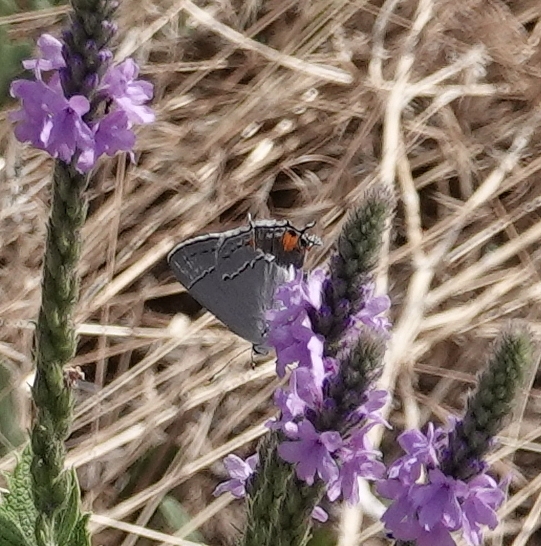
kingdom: Animalia
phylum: Arthropoda
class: Insecta
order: Lepidoptera
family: Lycaenidae
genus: Strymon
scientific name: Strymon melinus
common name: Gray hairstreak
